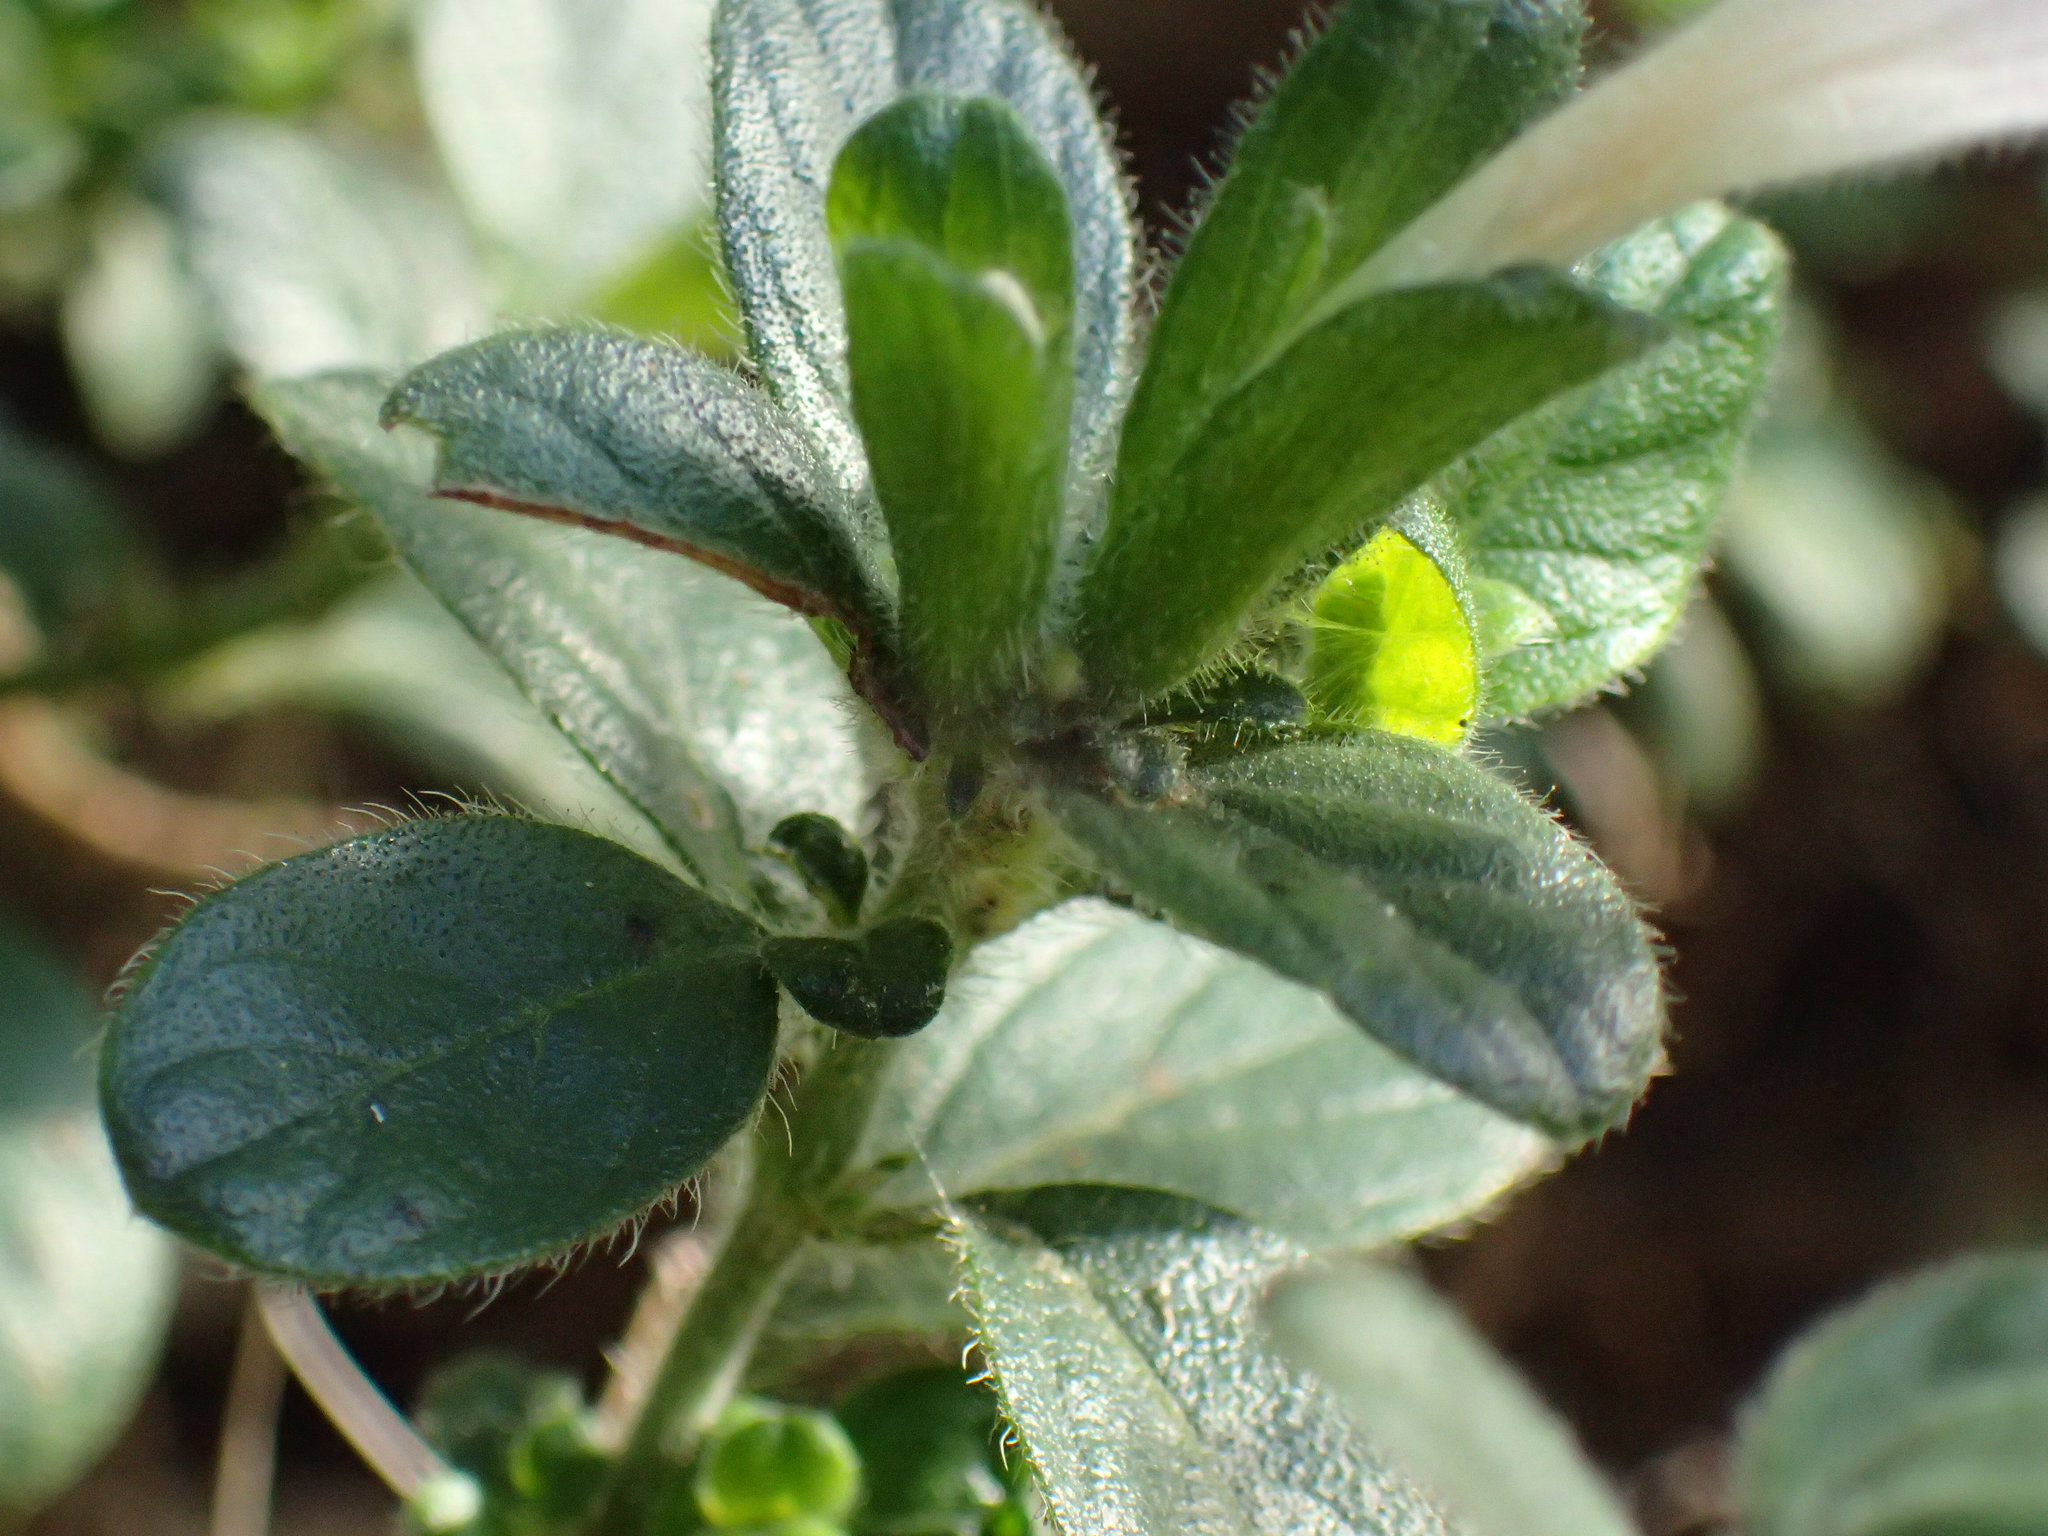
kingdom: Plantae
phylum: Tracheophyta
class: Magnoliopsida
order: Lamiales
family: Acanthaceae
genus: Barleria
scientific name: Barleria obtusa
